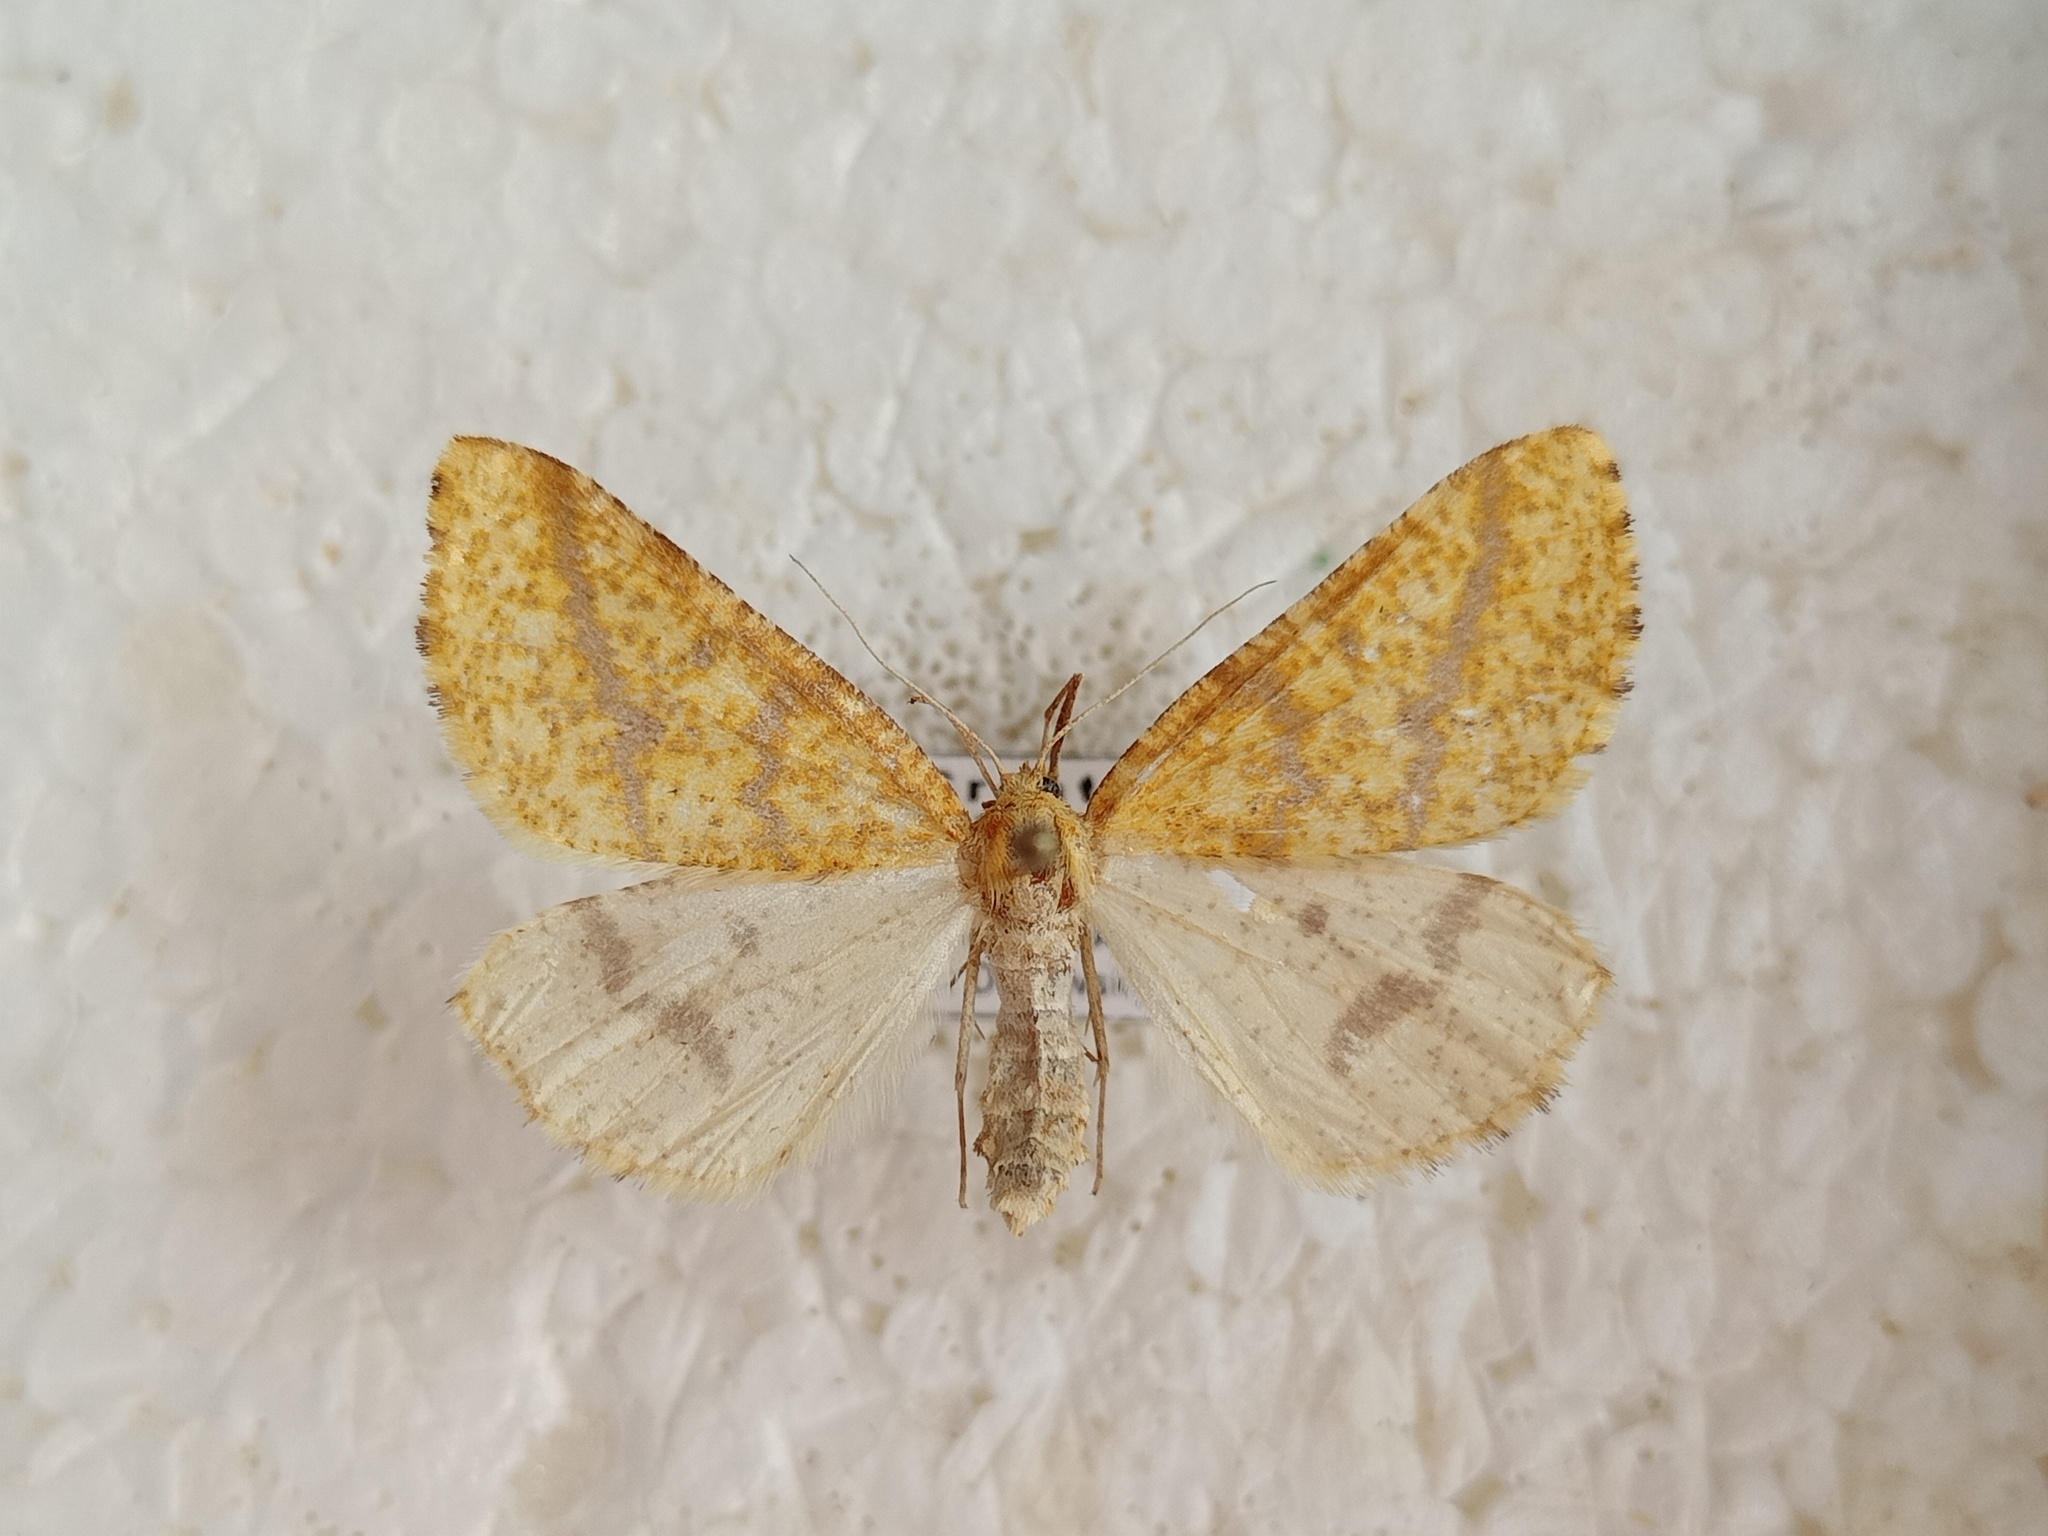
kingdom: Animalia
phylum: Arthropoda
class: Insecta
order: Lepidoptera
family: Geometridae
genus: Aspitates
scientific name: Aspitates ochrearia
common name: Yellow belle
